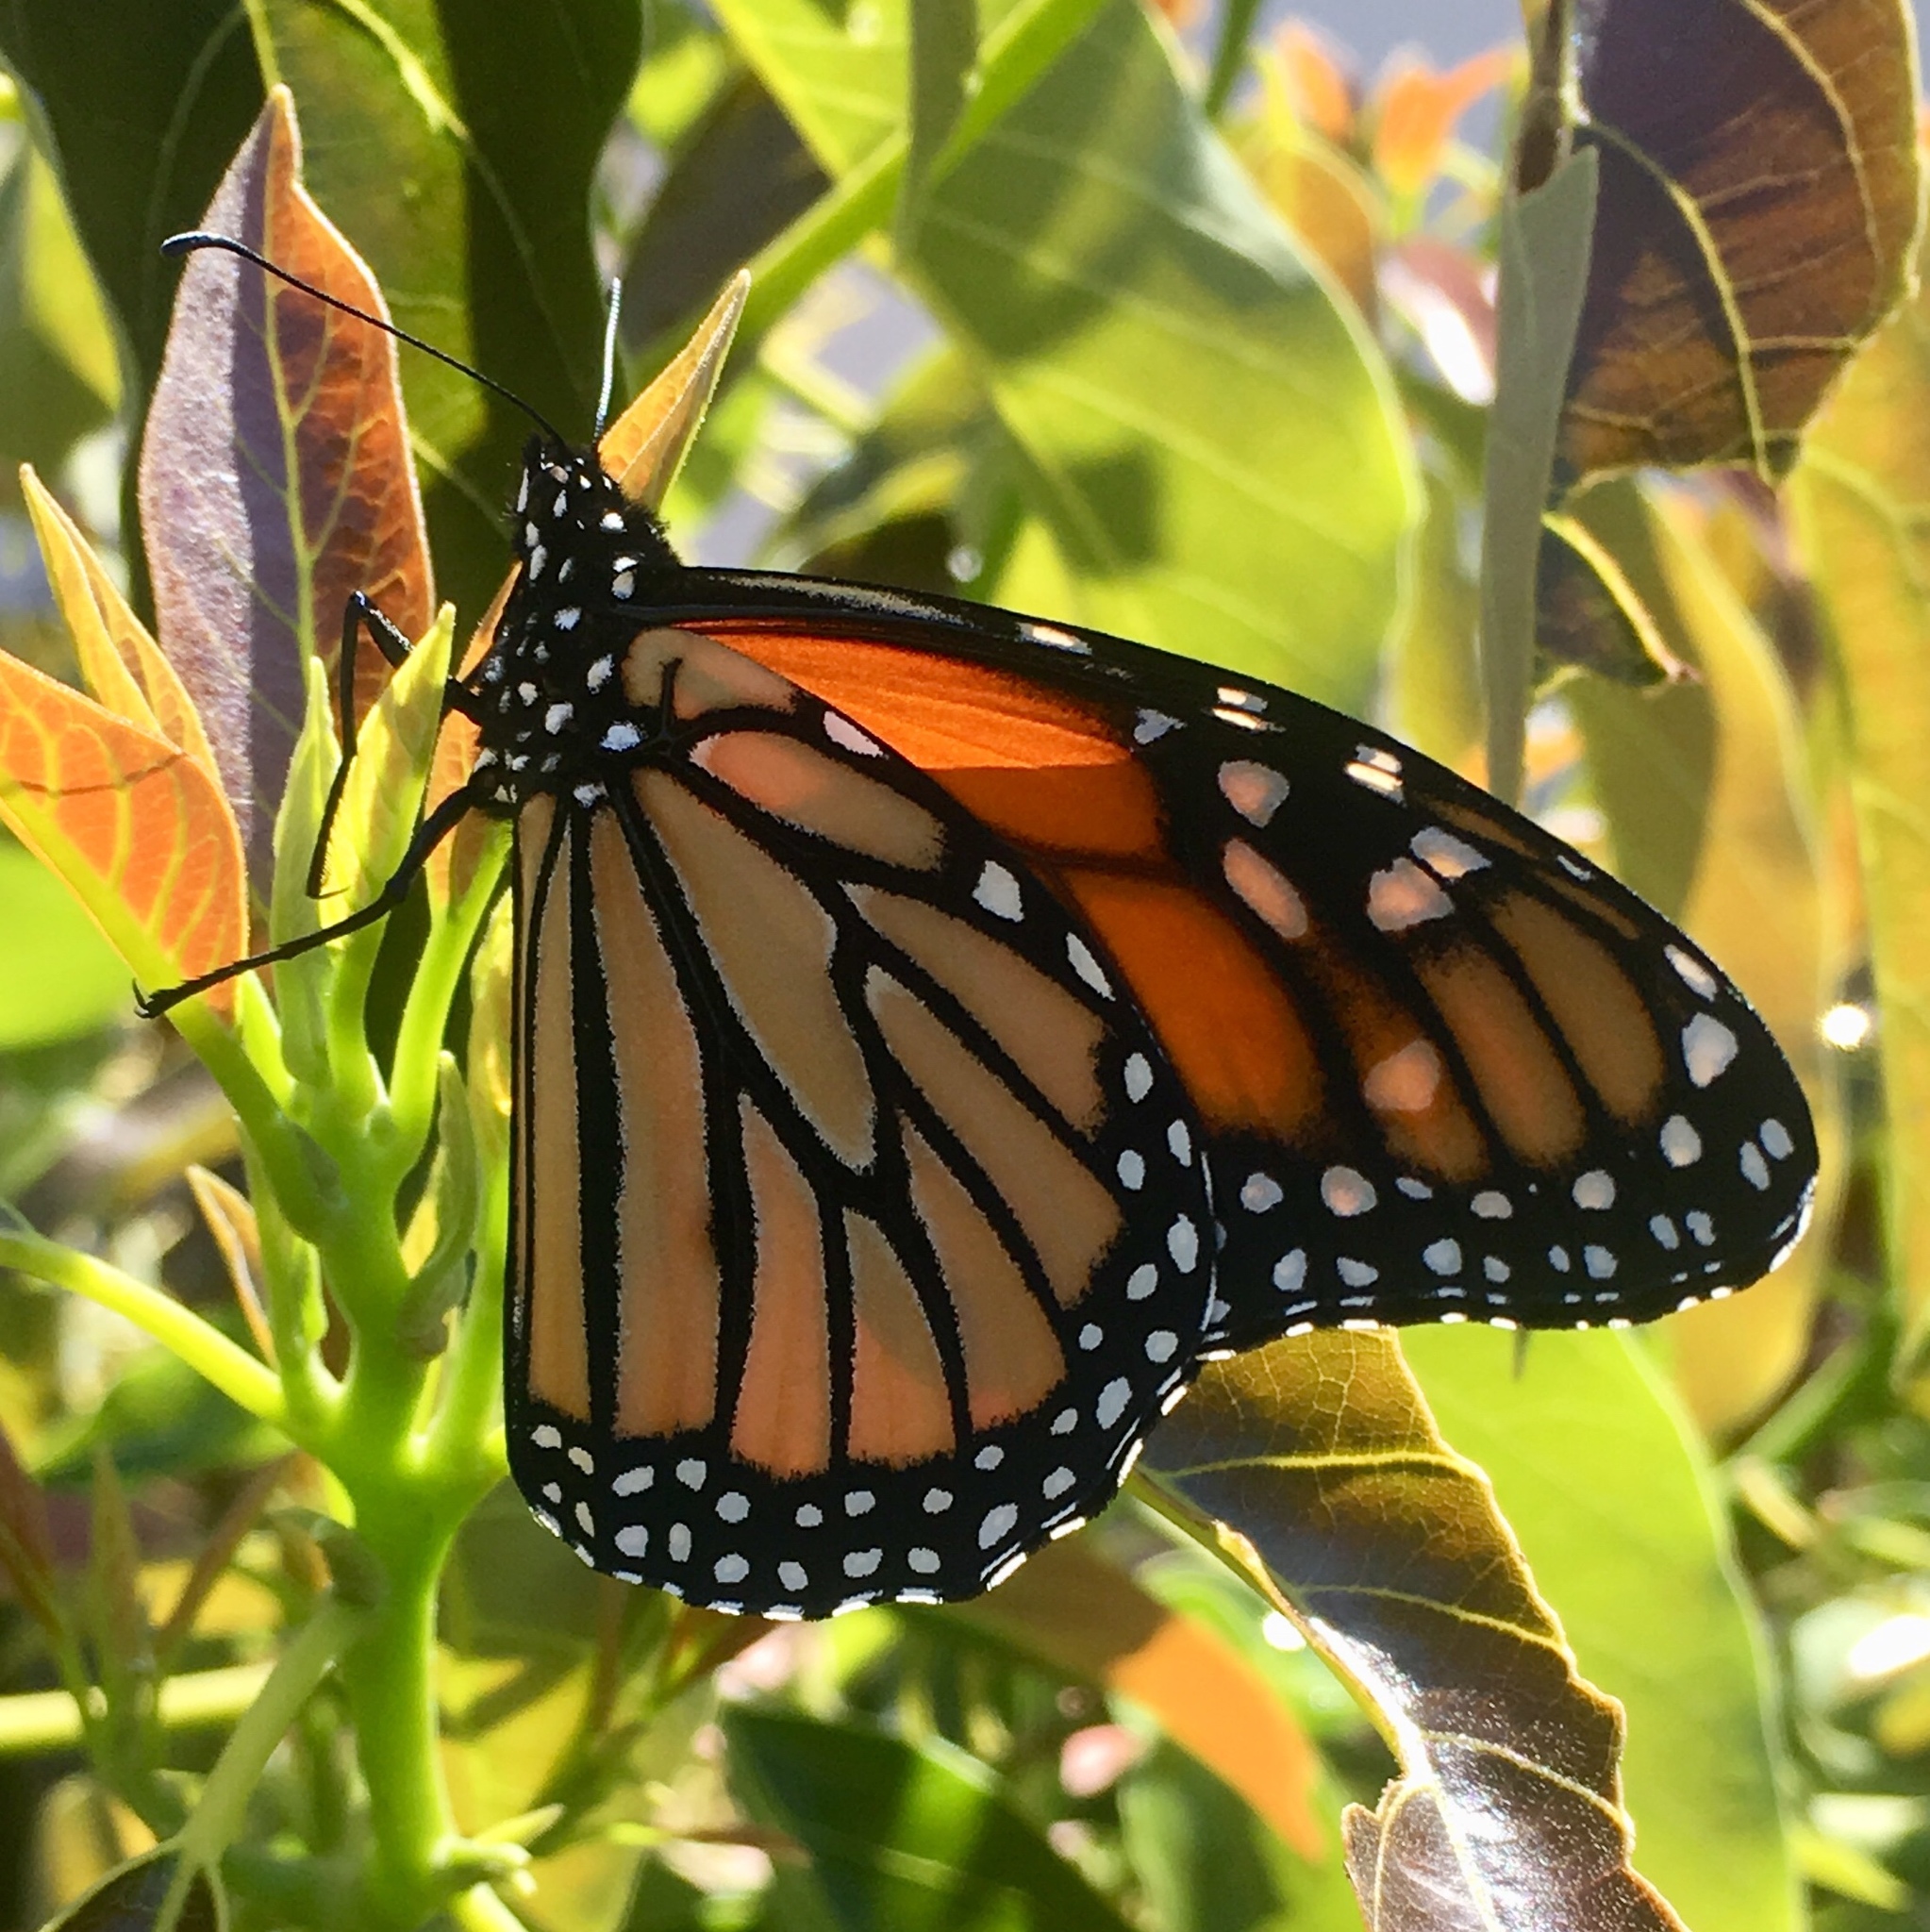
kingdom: Animalia
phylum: Arthropoda
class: Insecta
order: Lepidoptera
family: Nymphalidae
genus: Danaus
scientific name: Danaus plexippus
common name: Monarch
